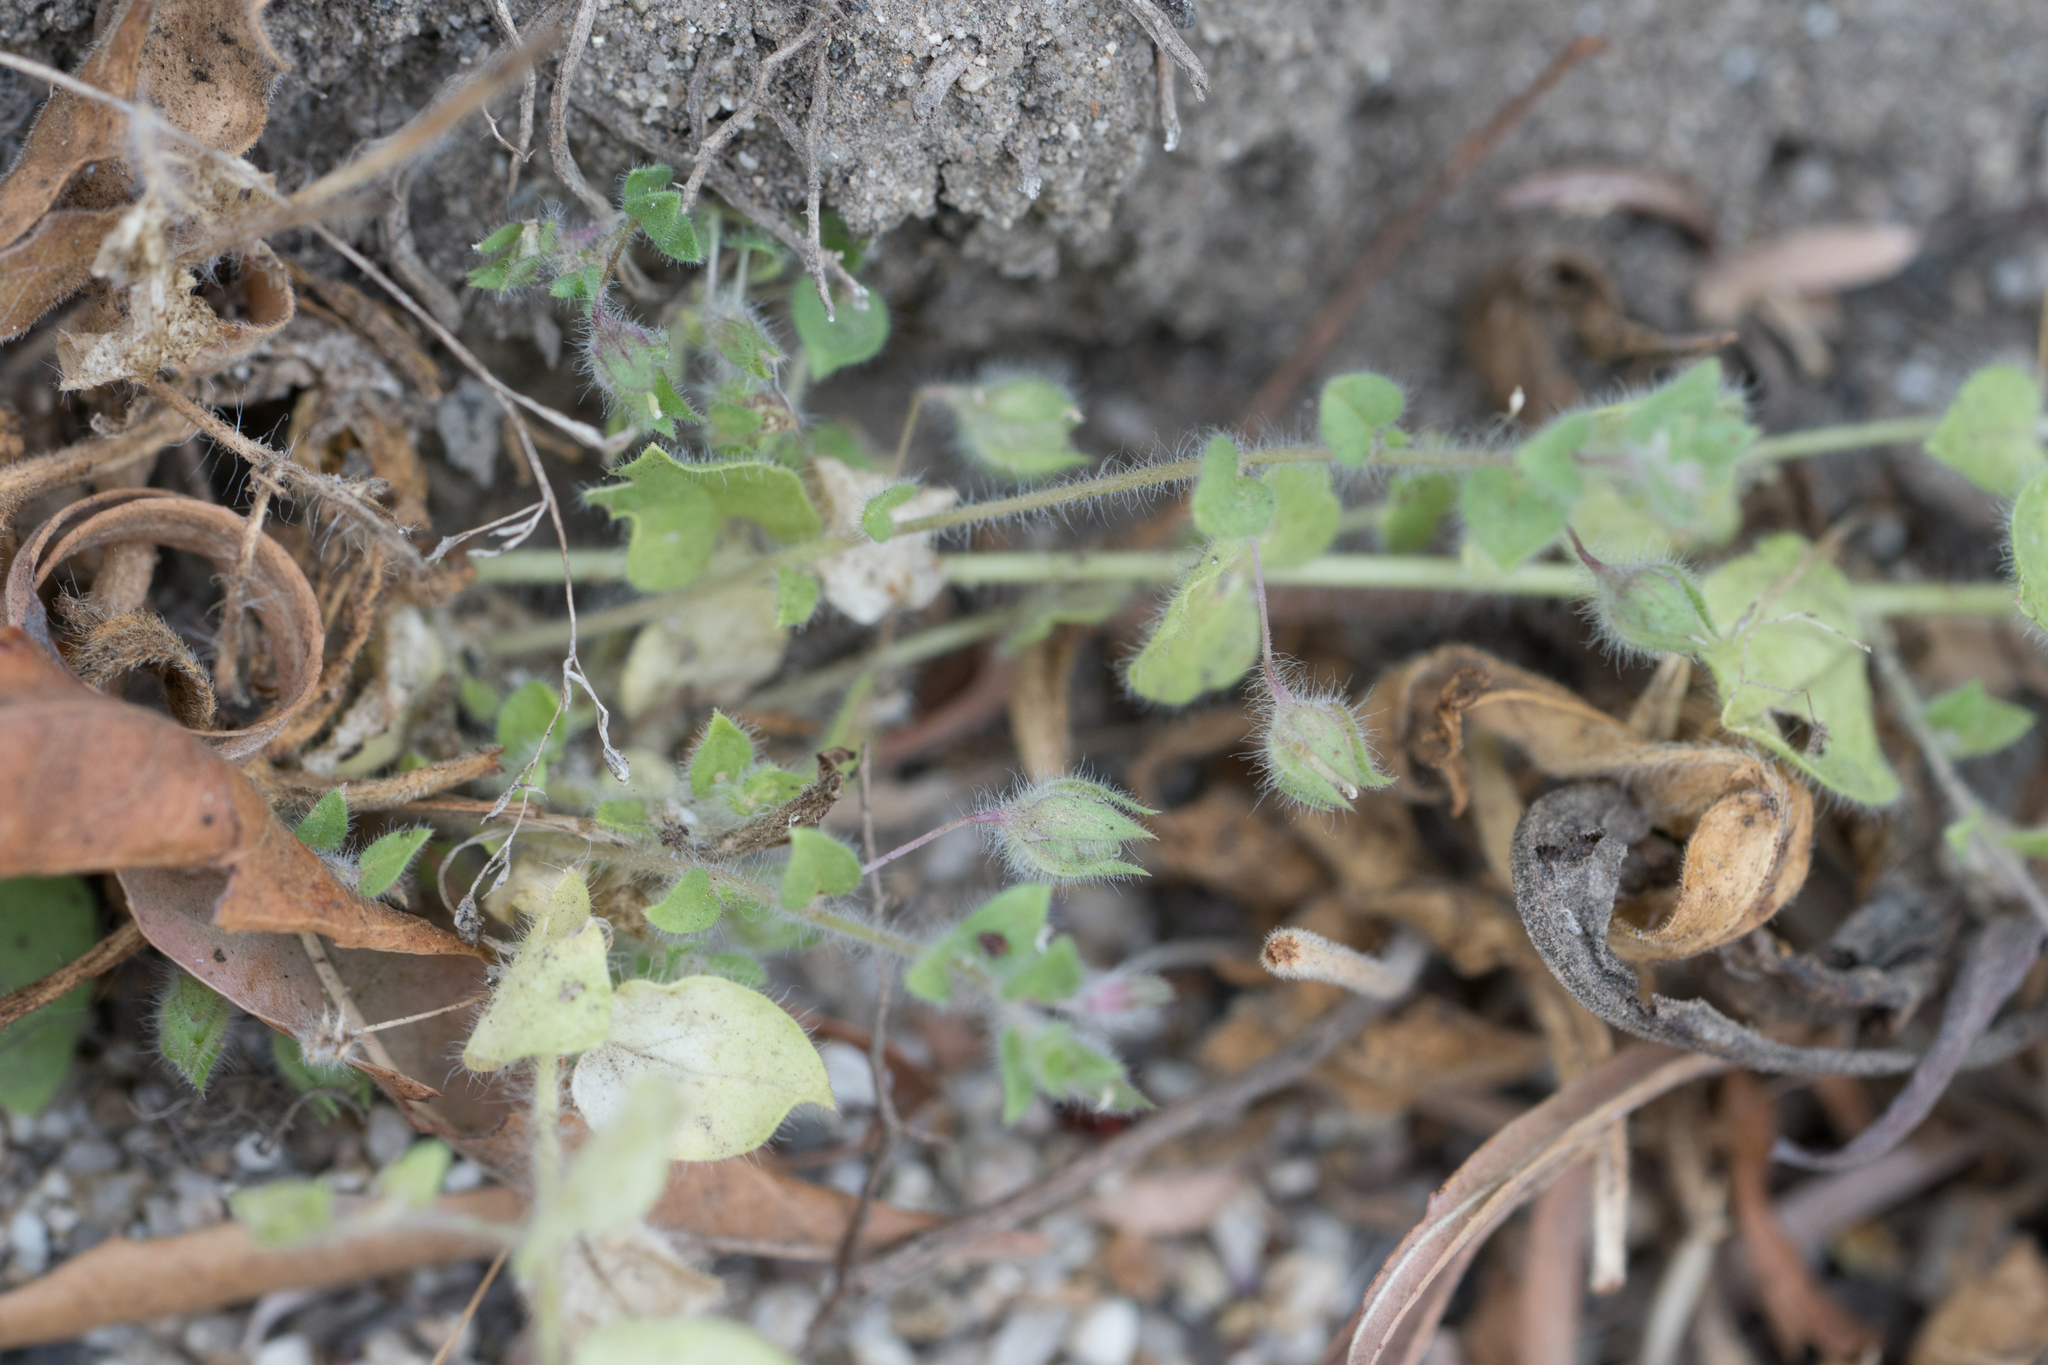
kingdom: Plantae
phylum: Tracheophyta
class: Magnoliopsida
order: Lamiales
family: Plantaginaceae
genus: Kickxia
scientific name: Kickxia elatine
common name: Sharp-leaved fluellen
